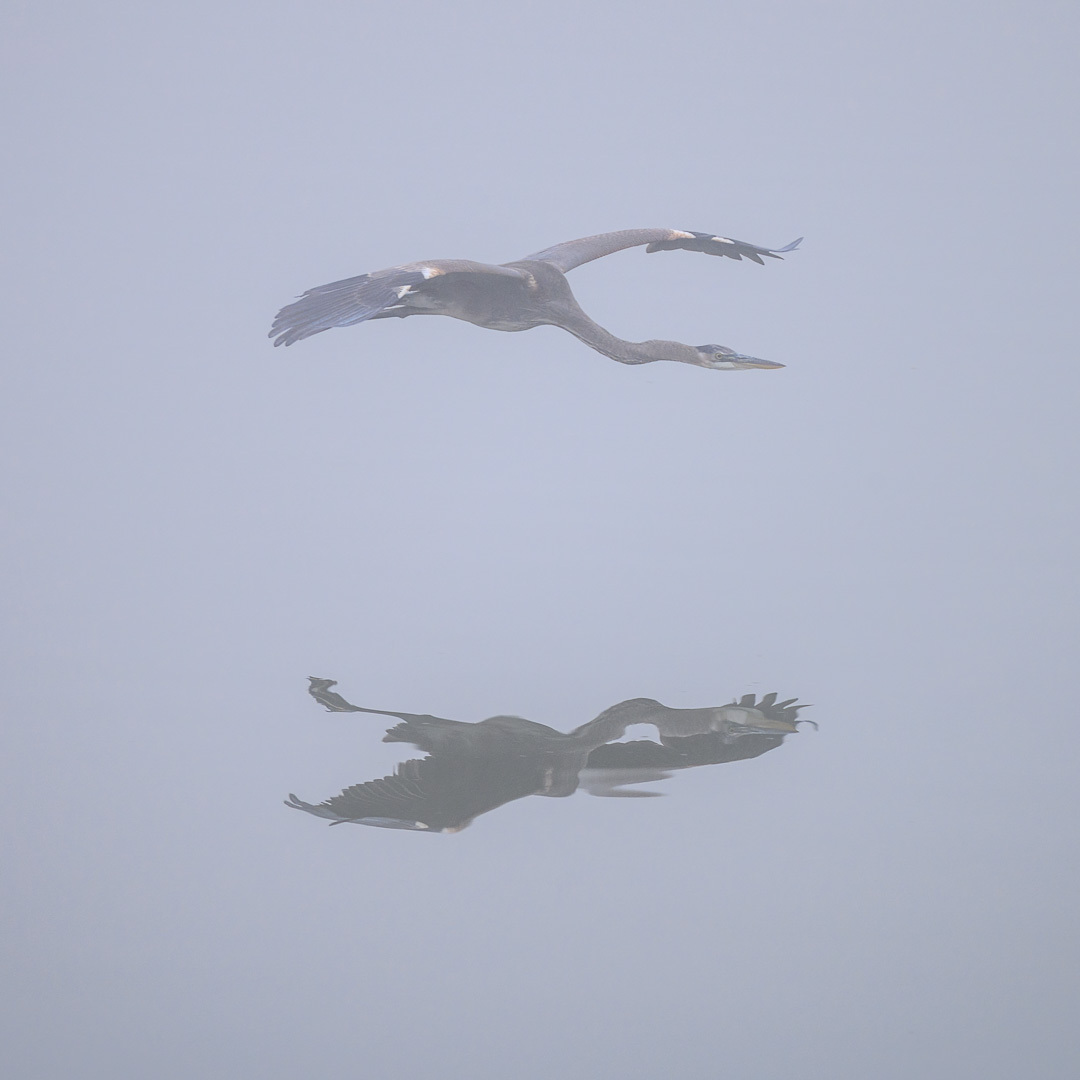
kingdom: Animalia
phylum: Chordata
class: Aves
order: Pelecaniformes
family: Ardeidae
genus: Ardea
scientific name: Ardea herodias
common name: Great blue heron
